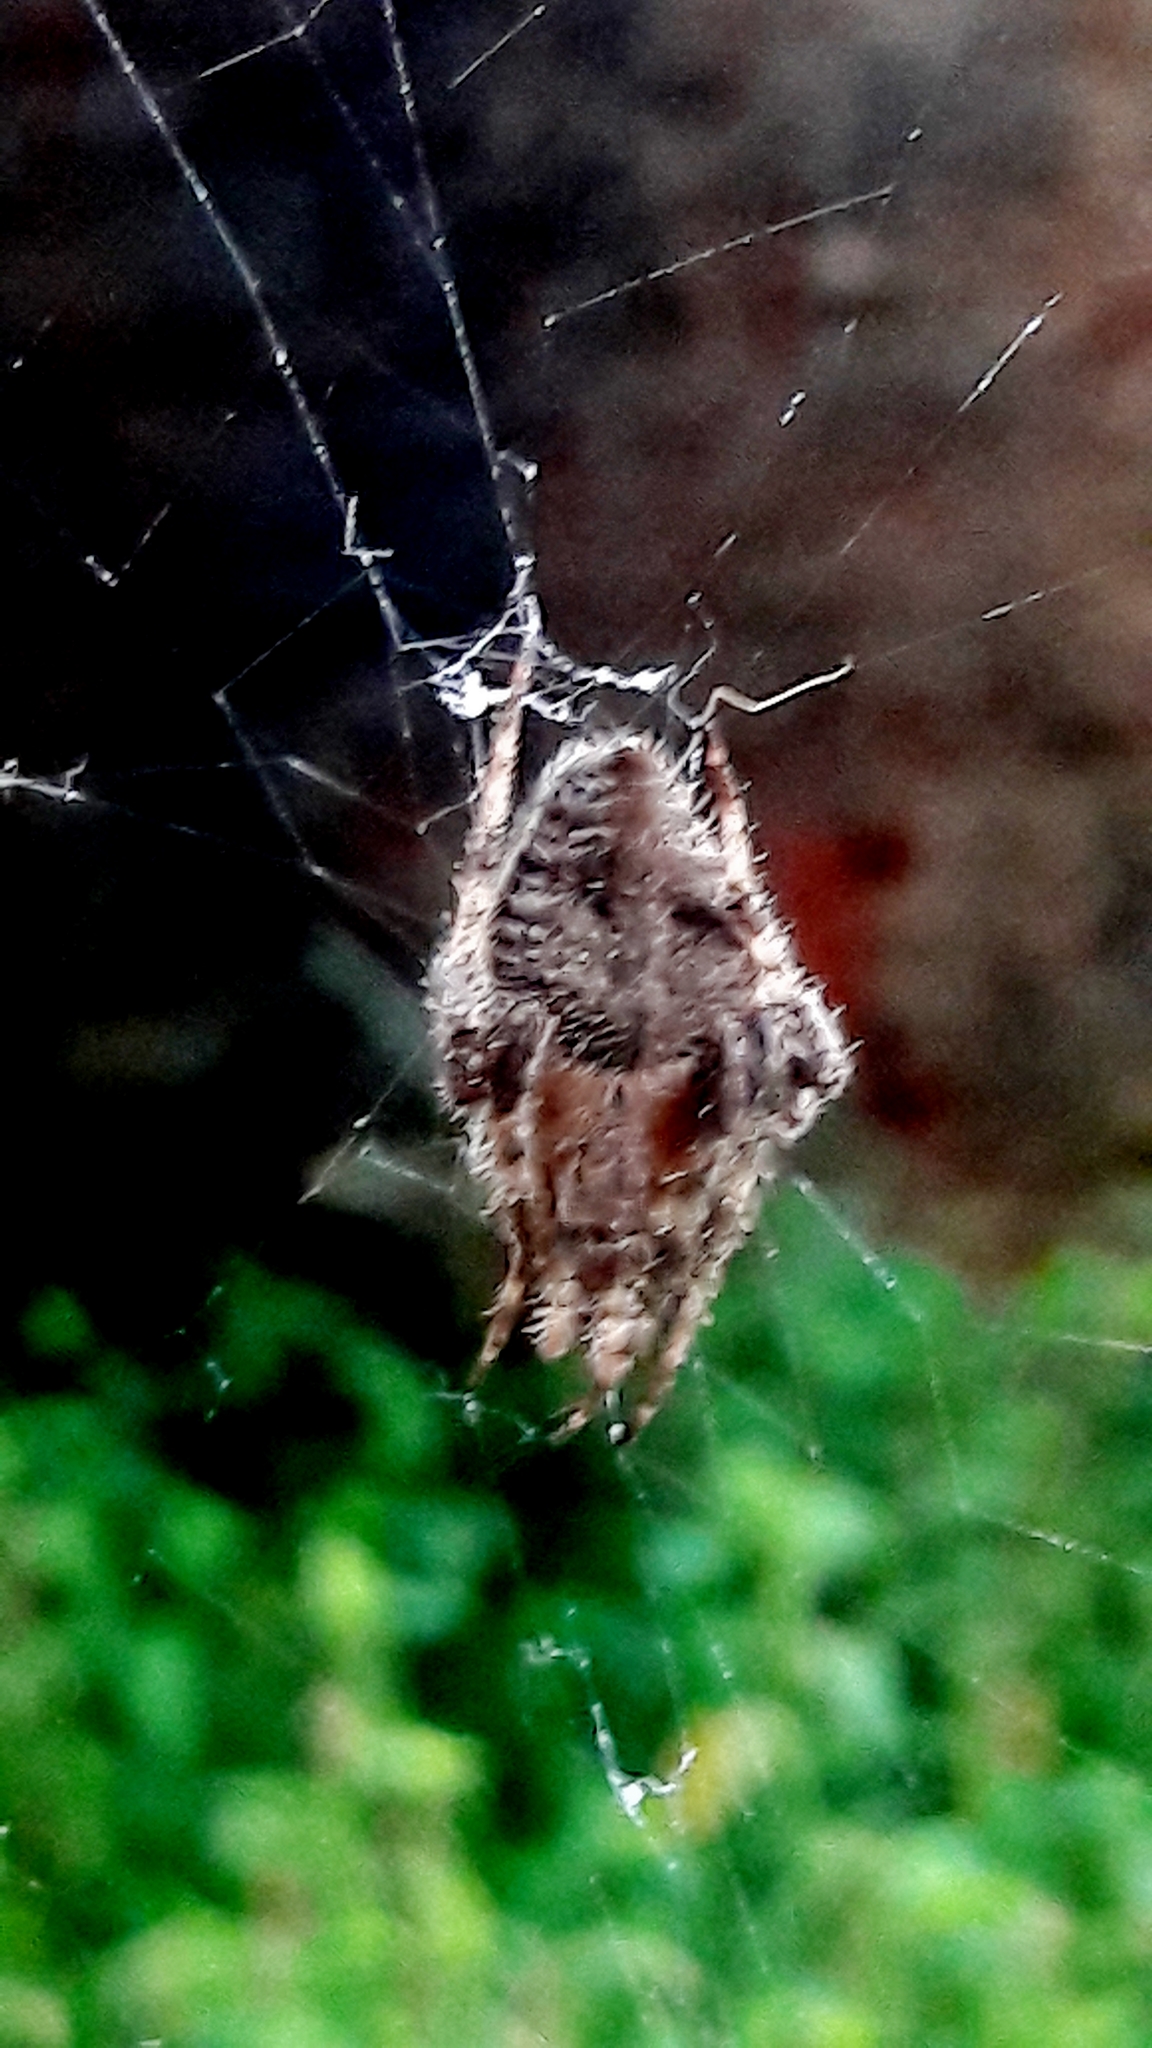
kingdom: Animalia
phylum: Arthropoda
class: Arachnida
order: Araneae
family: Araneidae
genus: Eriophora
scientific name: Eriophora edax
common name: Orb weavers
